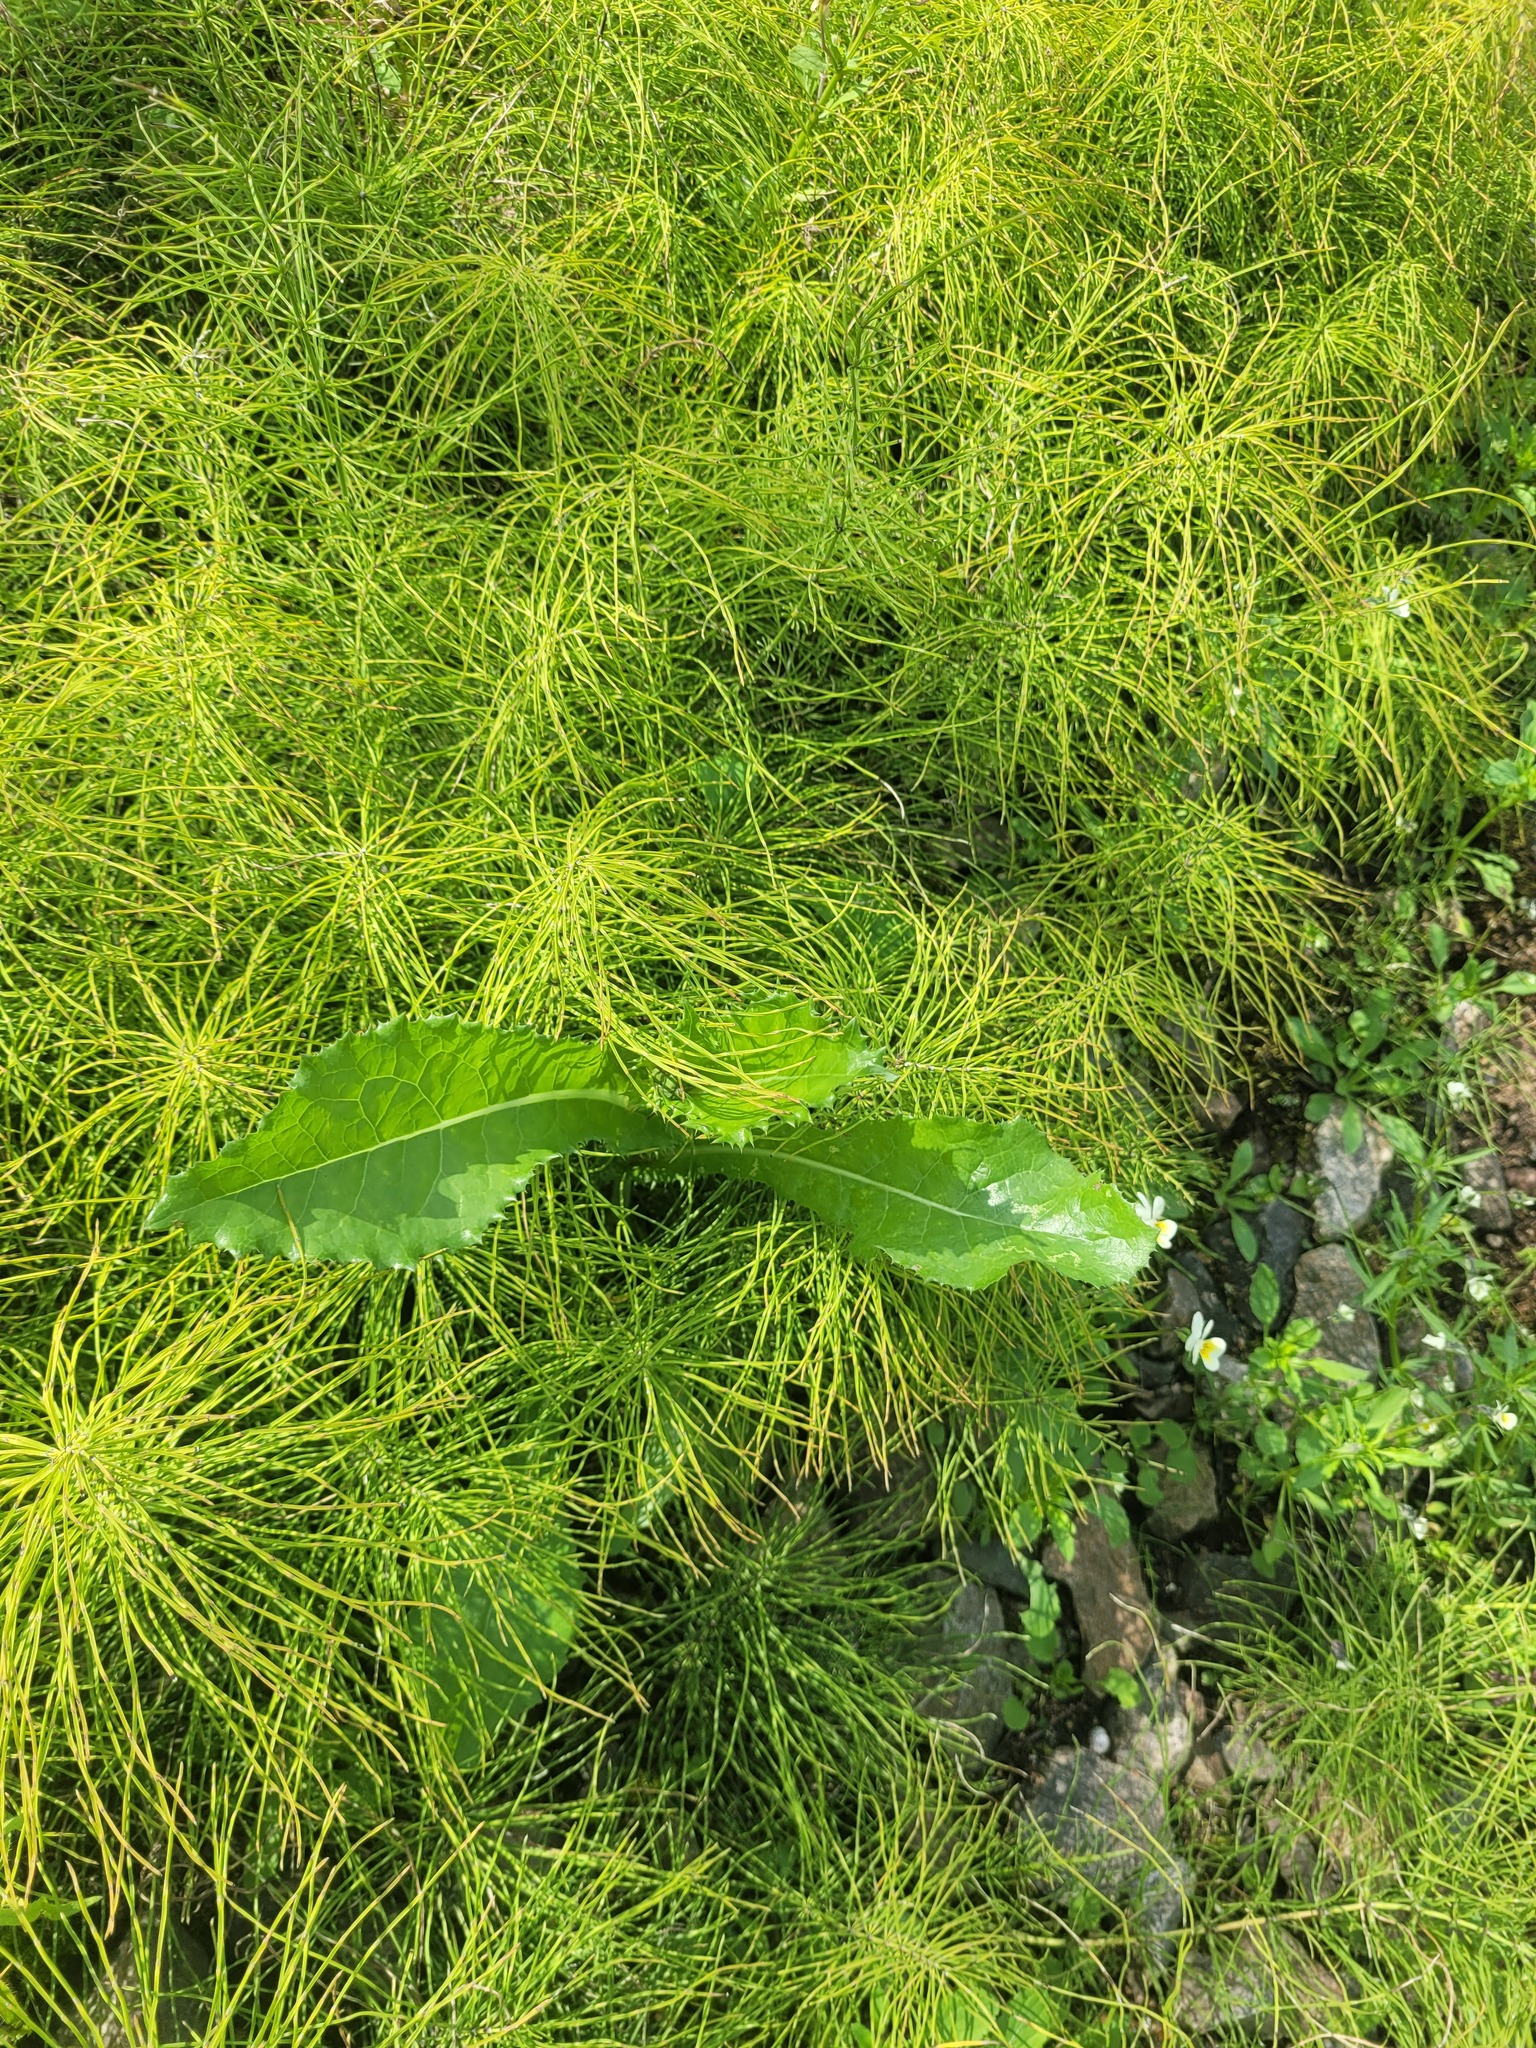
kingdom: Plantae
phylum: Tracheophyta
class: Magnoliopsida
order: Asterales
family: Asteraceae
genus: Sonchus
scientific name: Sonchus asper
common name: Prickly sow-thistle
